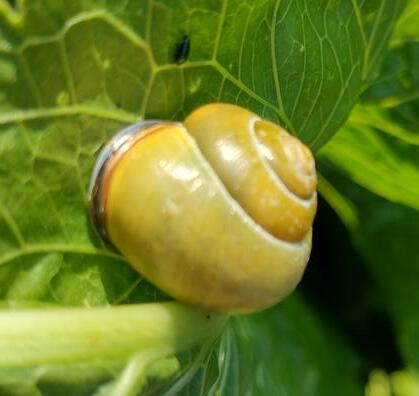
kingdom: Animalia
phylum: Mollusca
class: Gastropoda
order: Stylommatophora
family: Helicidae
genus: Cepaea
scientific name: Cepaea nemoralis
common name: Grovesnail
